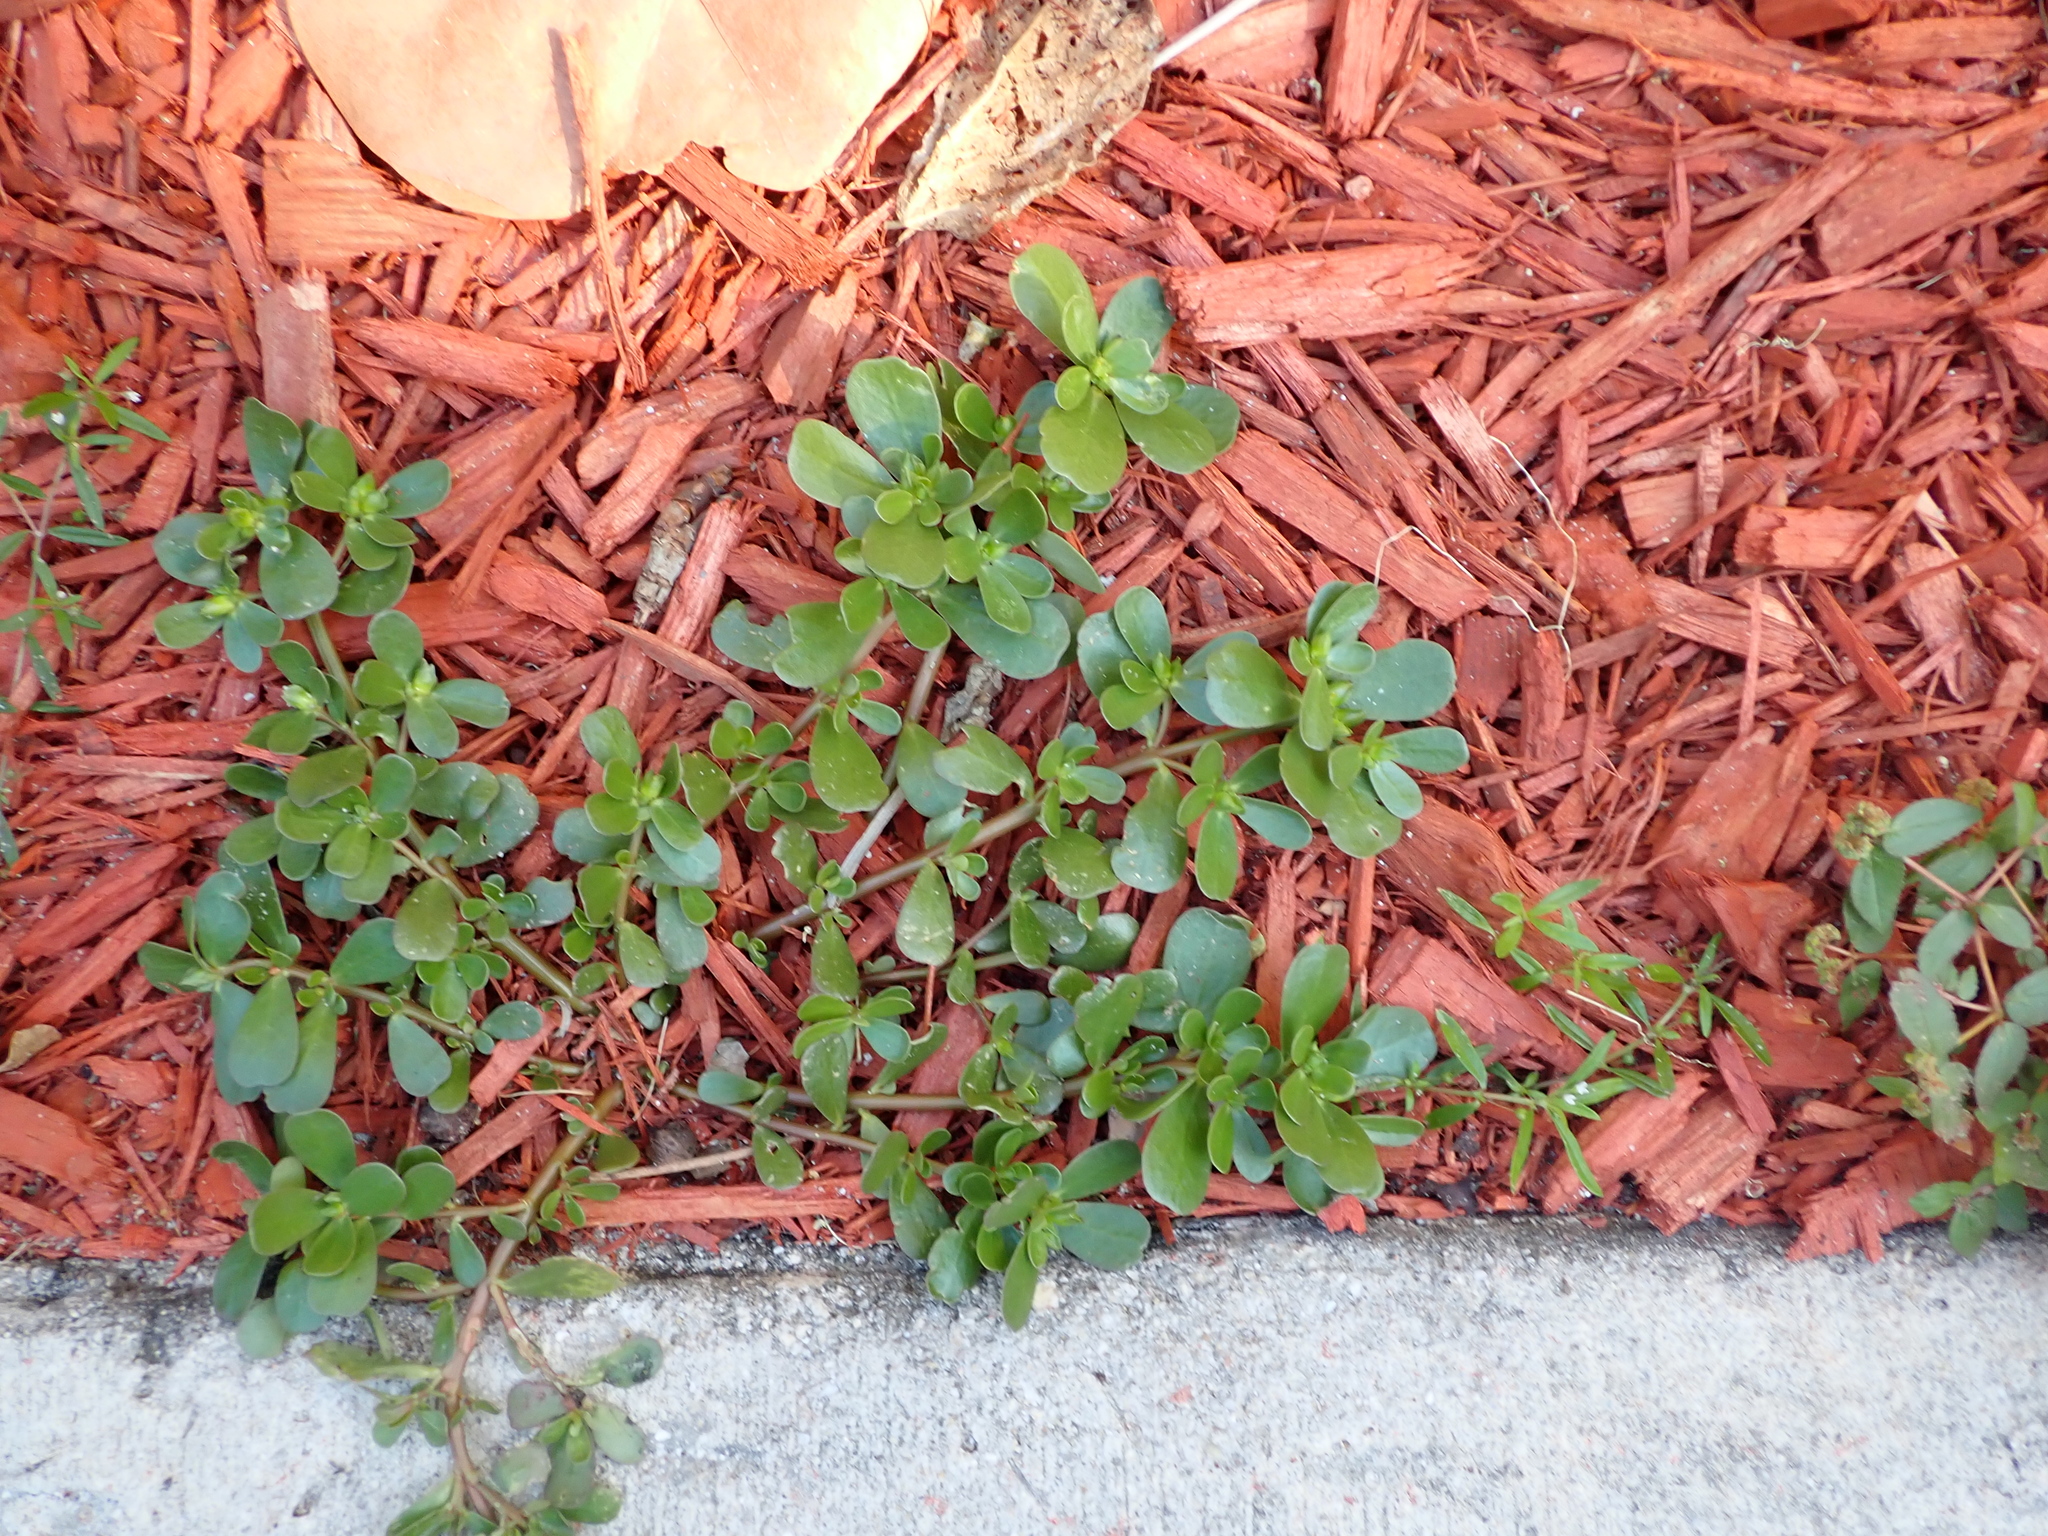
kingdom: Plantae
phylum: Tracheophyta
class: Magnoliopsida
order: Caryophyllales
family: Portulacaceae
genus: Portulaca
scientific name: Portulaca oleracea
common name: Common purslane
